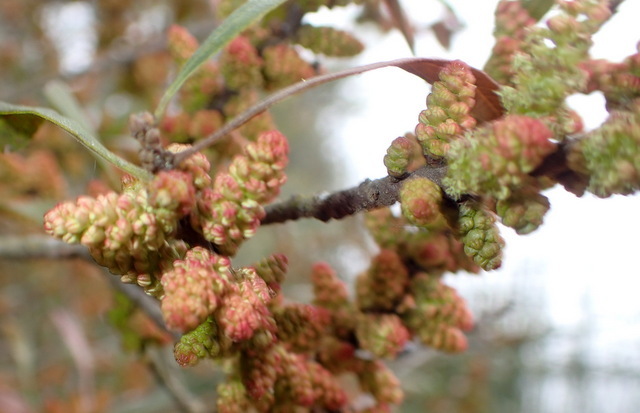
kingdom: Plantae
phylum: Tracheophyta
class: Magnoliopsida
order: Fagales
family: Myricaceae
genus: Morella
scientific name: Morella cerifera
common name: Wax myrtle
